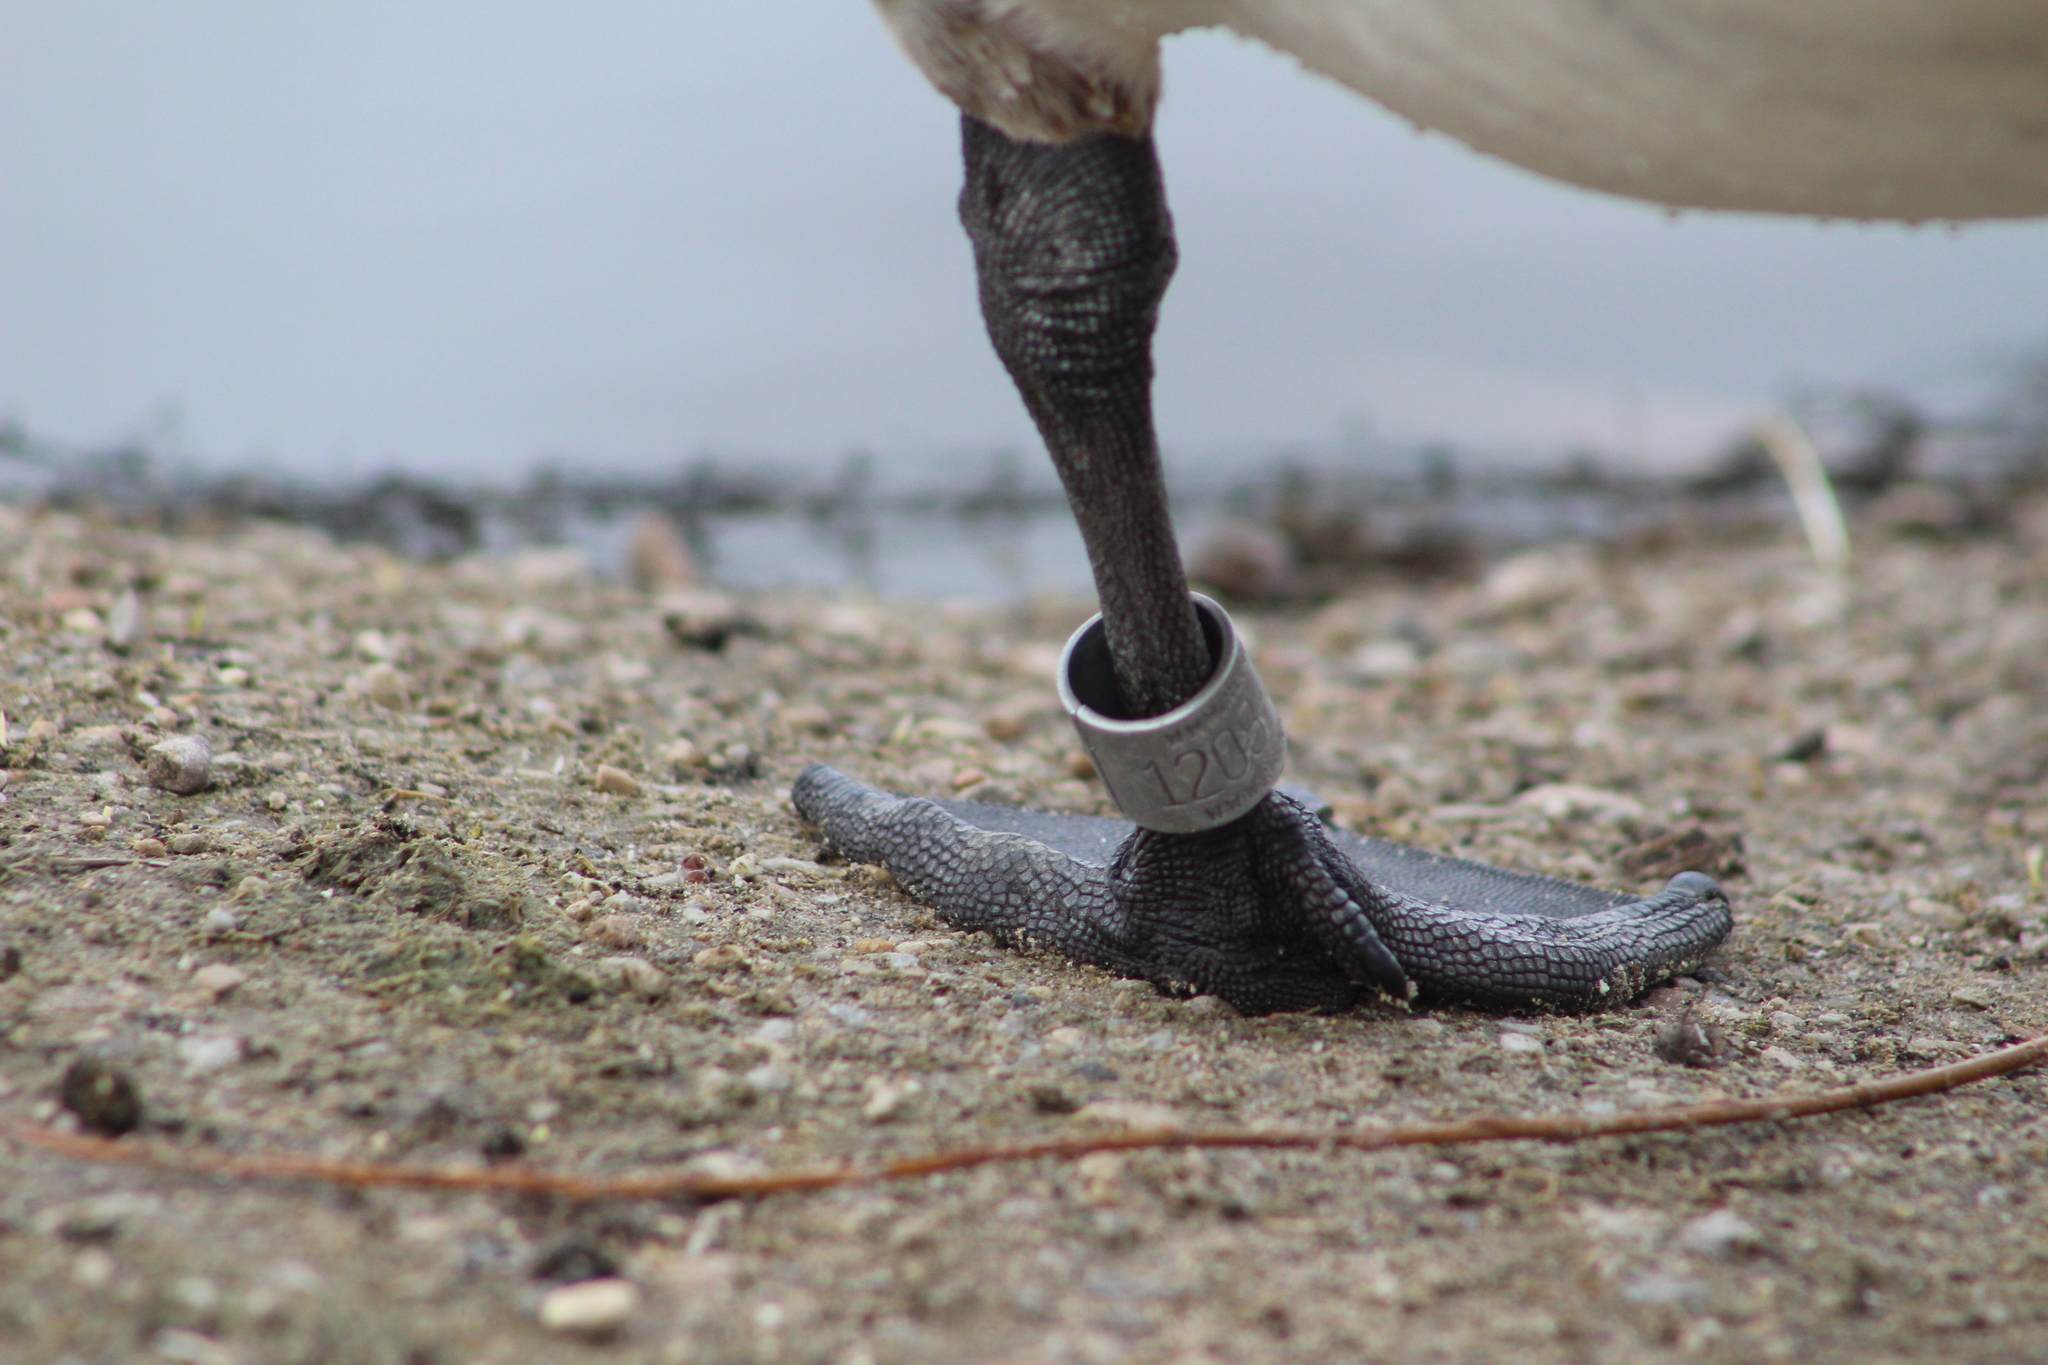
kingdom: Animalia
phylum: Chordata
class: Aves
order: Anseriformes
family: Anatidae
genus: Branta
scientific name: Branta canadensis
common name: Canada goose
